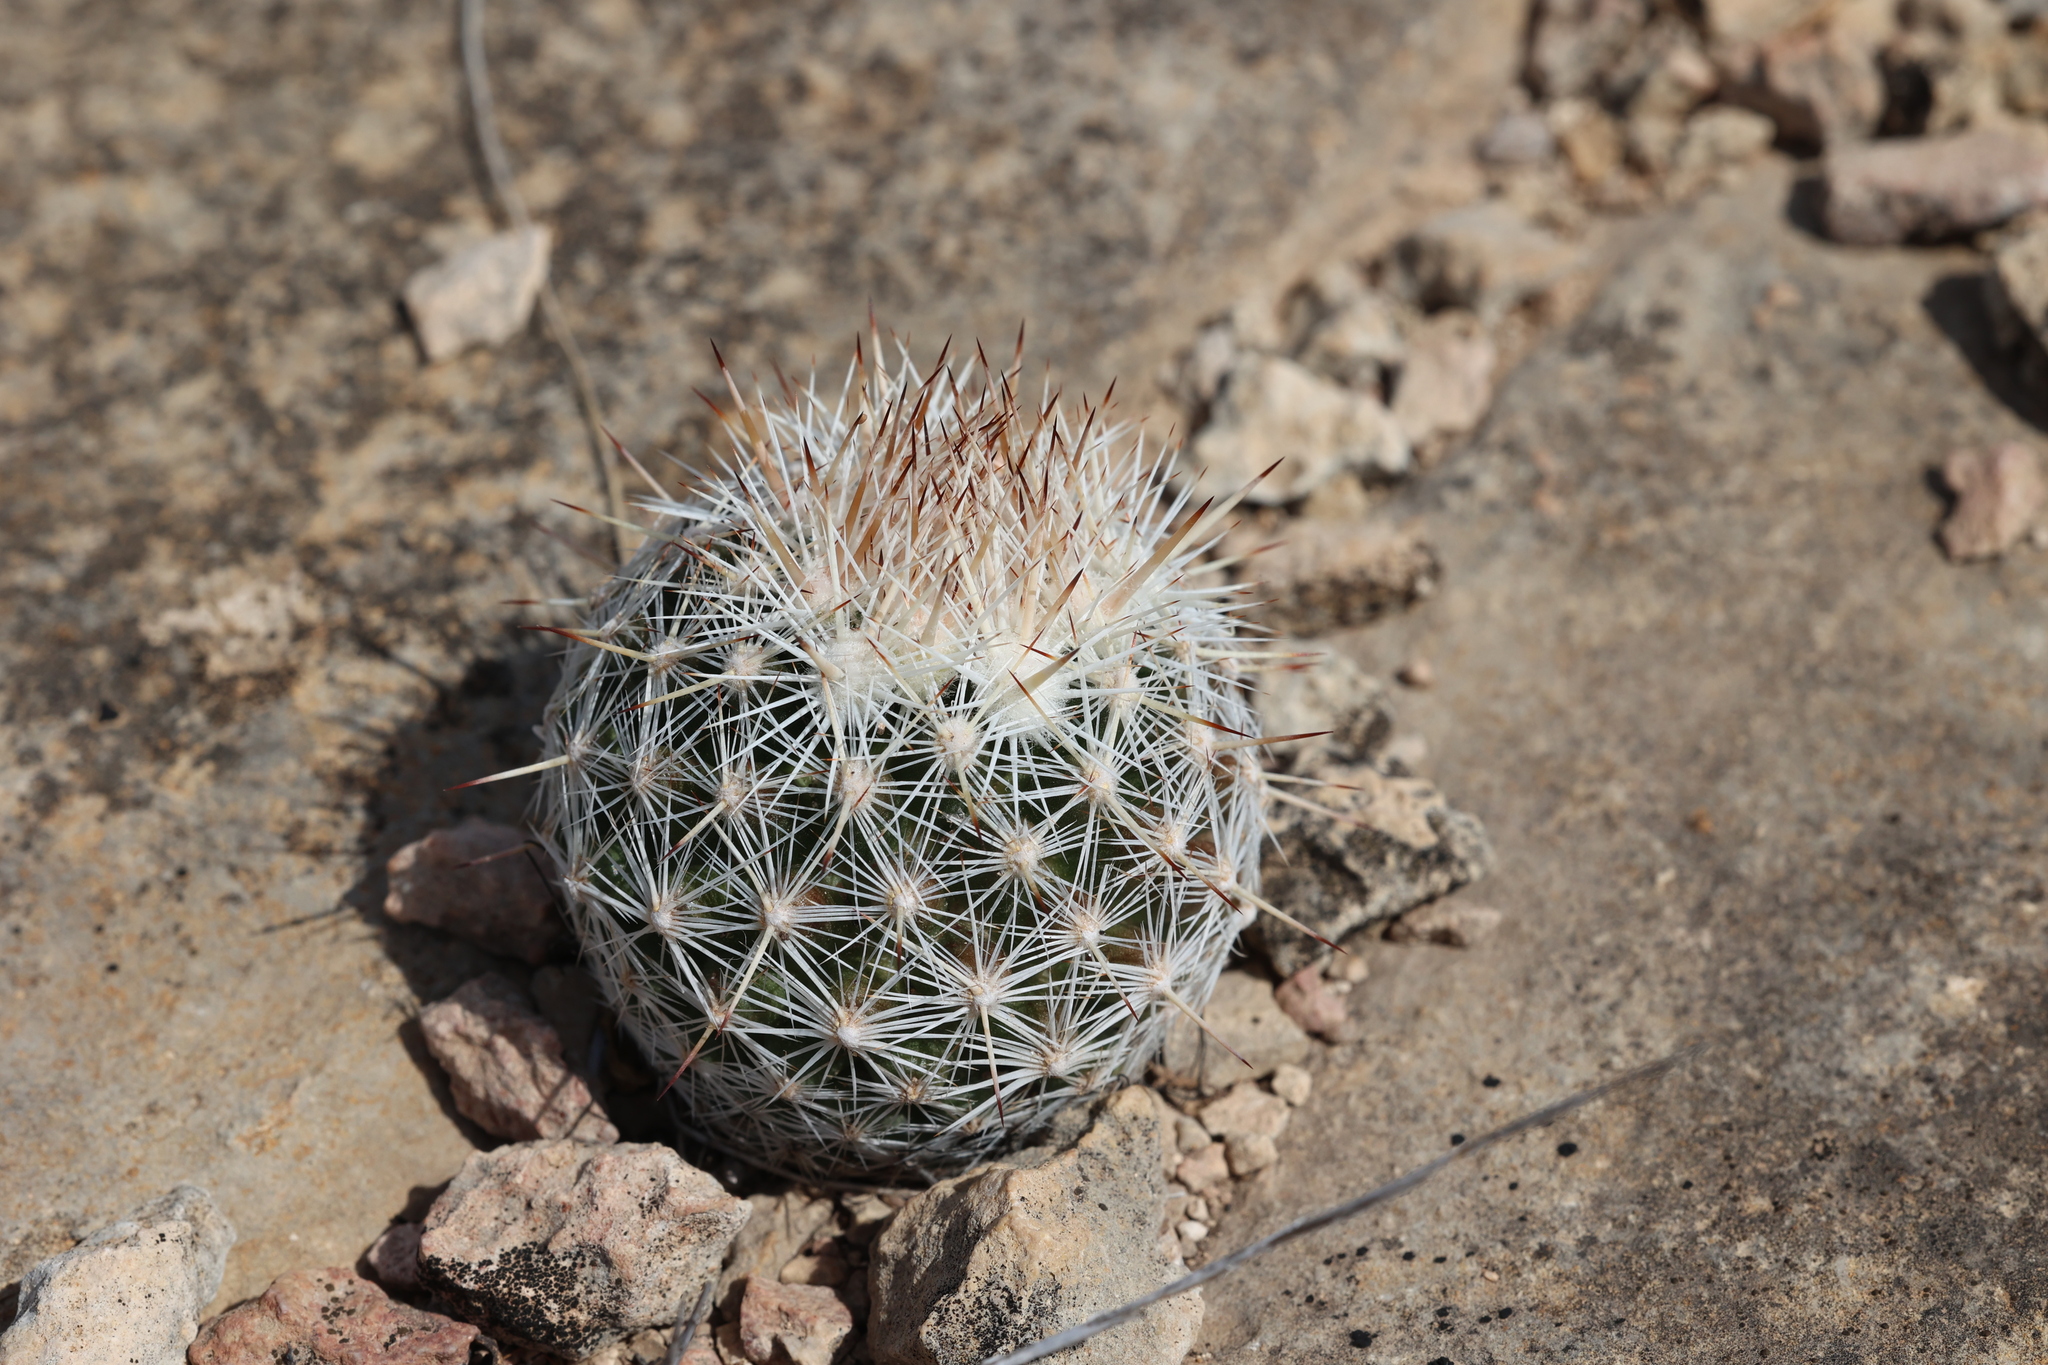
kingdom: Plantae
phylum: Tracheophyta
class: Magnoliopsida
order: Caryophyllales
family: Cactaceae
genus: Pelecyphora
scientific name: Pelecyphora vivipara
